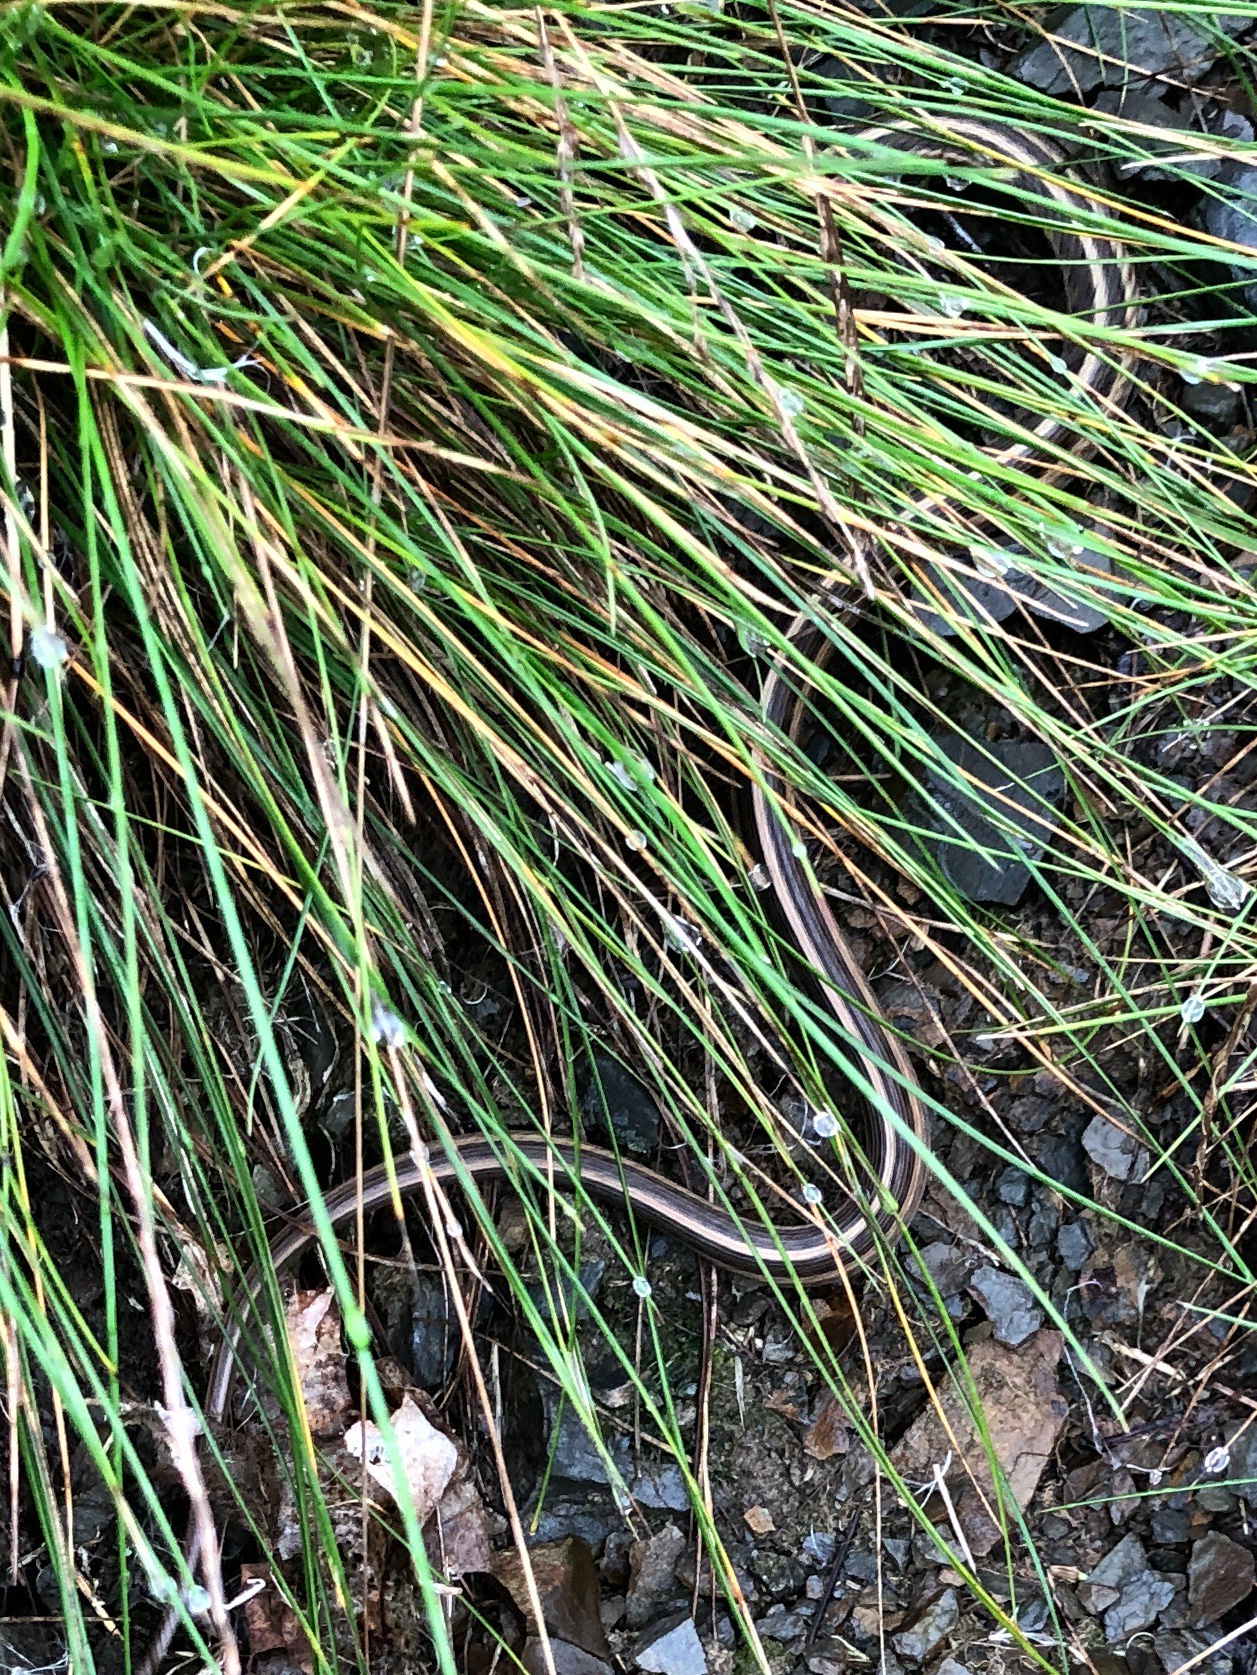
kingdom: Animalia
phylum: Chordata
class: Squamata
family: Colubridae
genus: Thamnophis
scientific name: Thamnophis sirtalis
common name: Common garter snake
